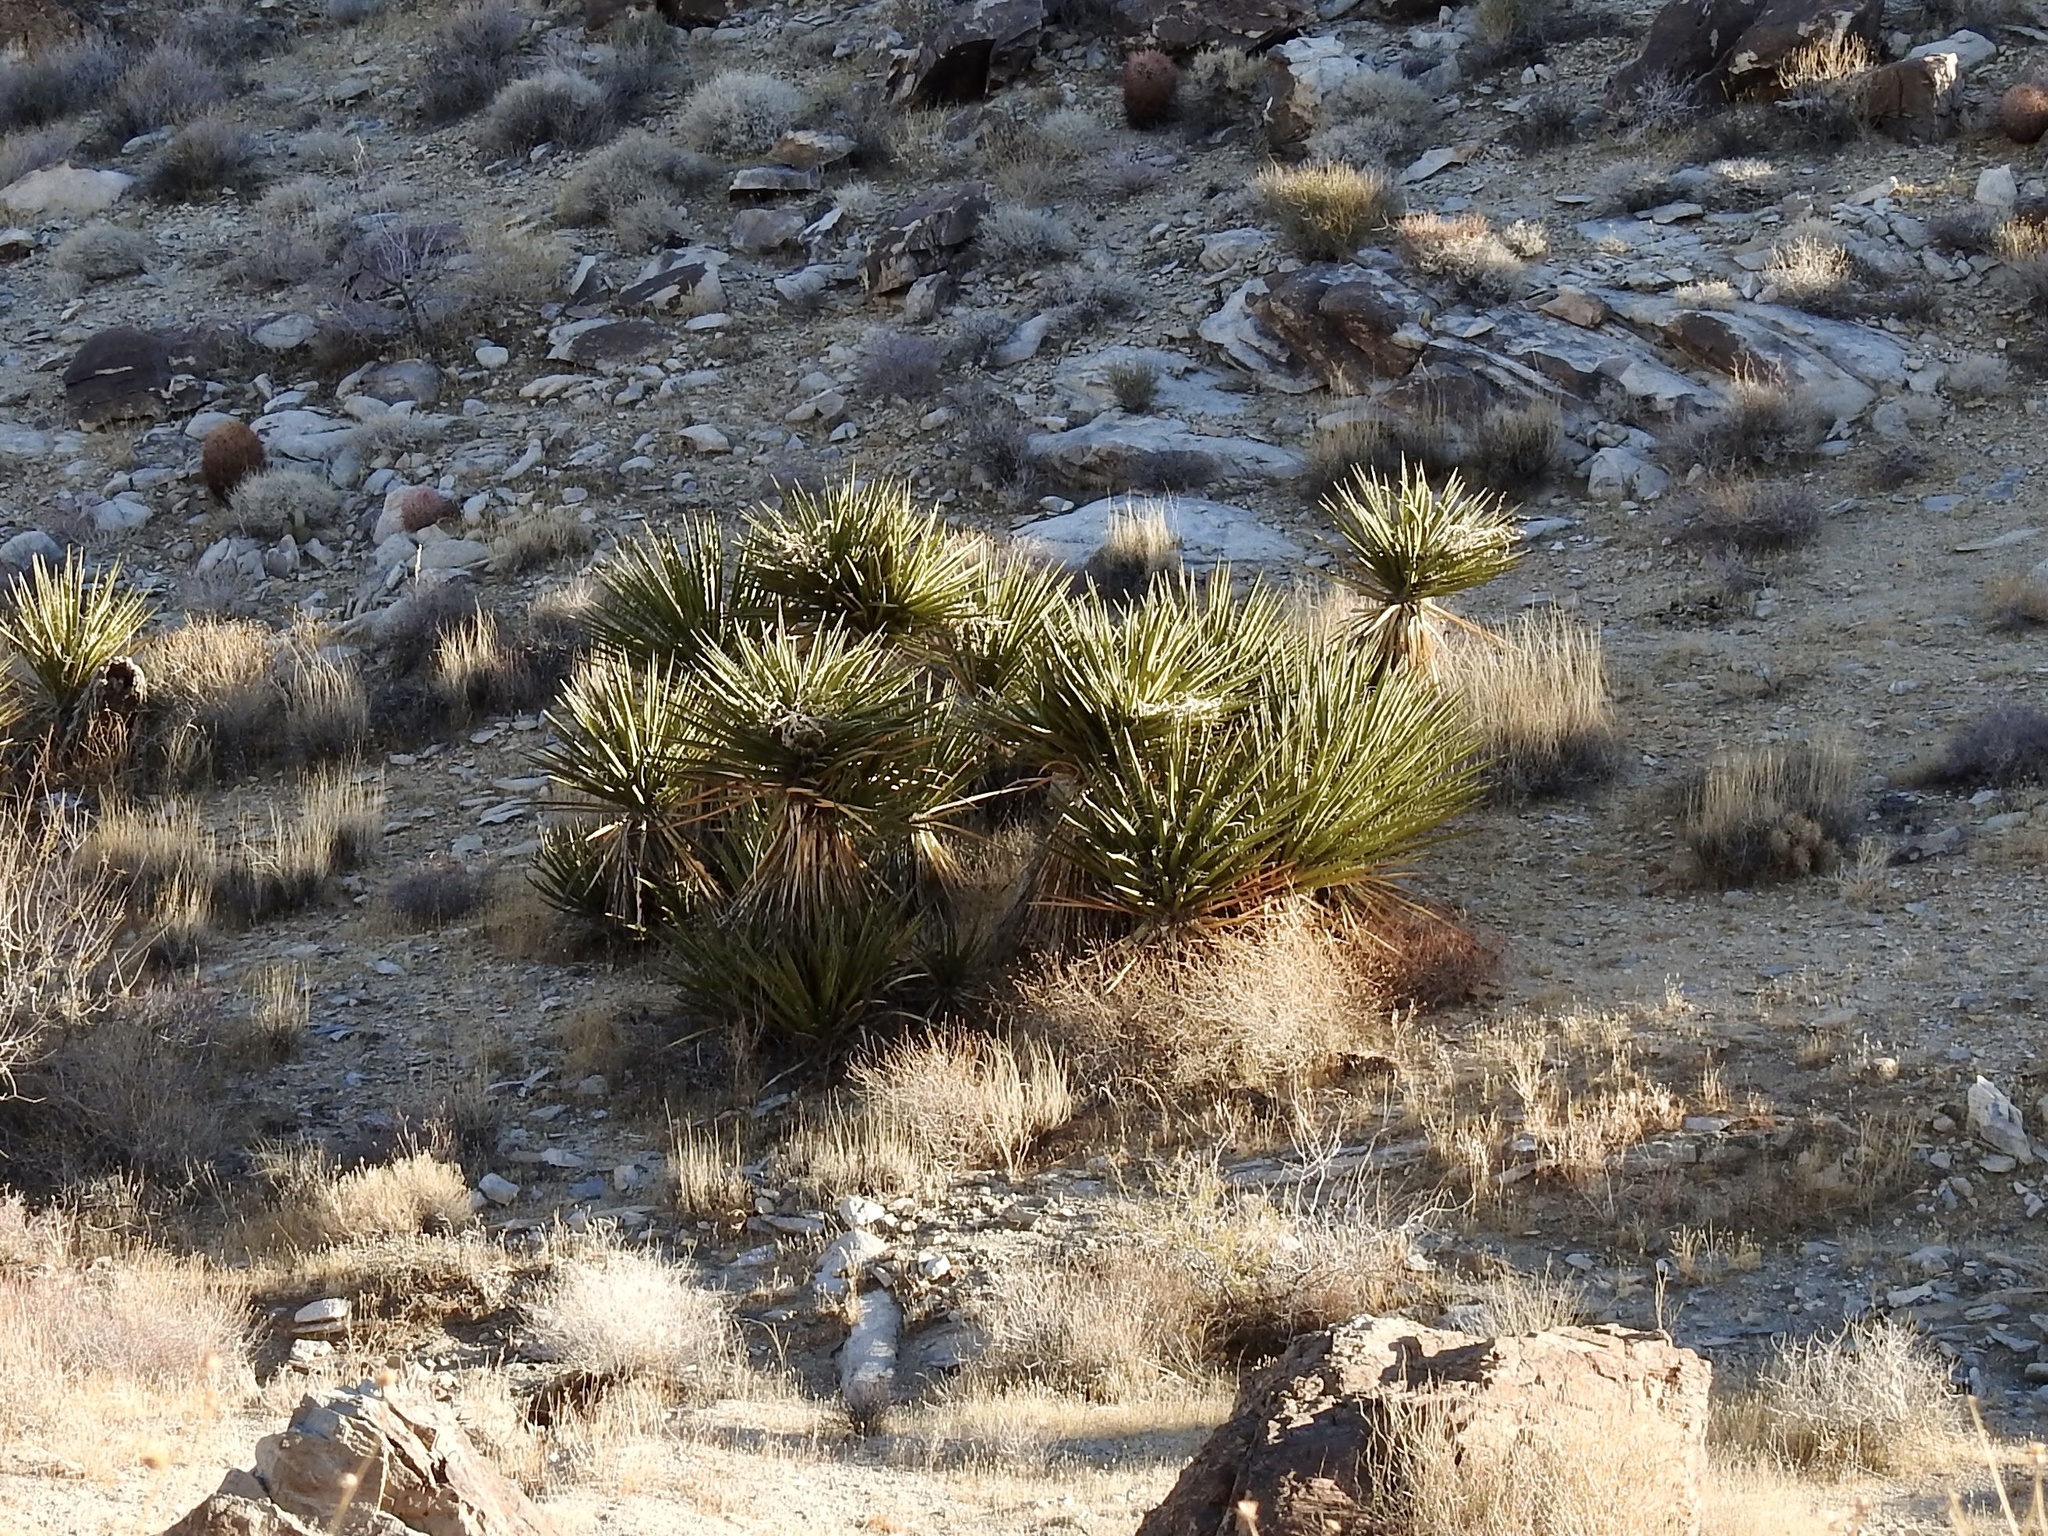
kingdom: Plantae
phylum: Tracheophyta
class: Liliopsida
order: Asparagales
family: Asparagaceae
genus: Yucca
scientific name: Yucca schidigera
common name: Mojave yucca
